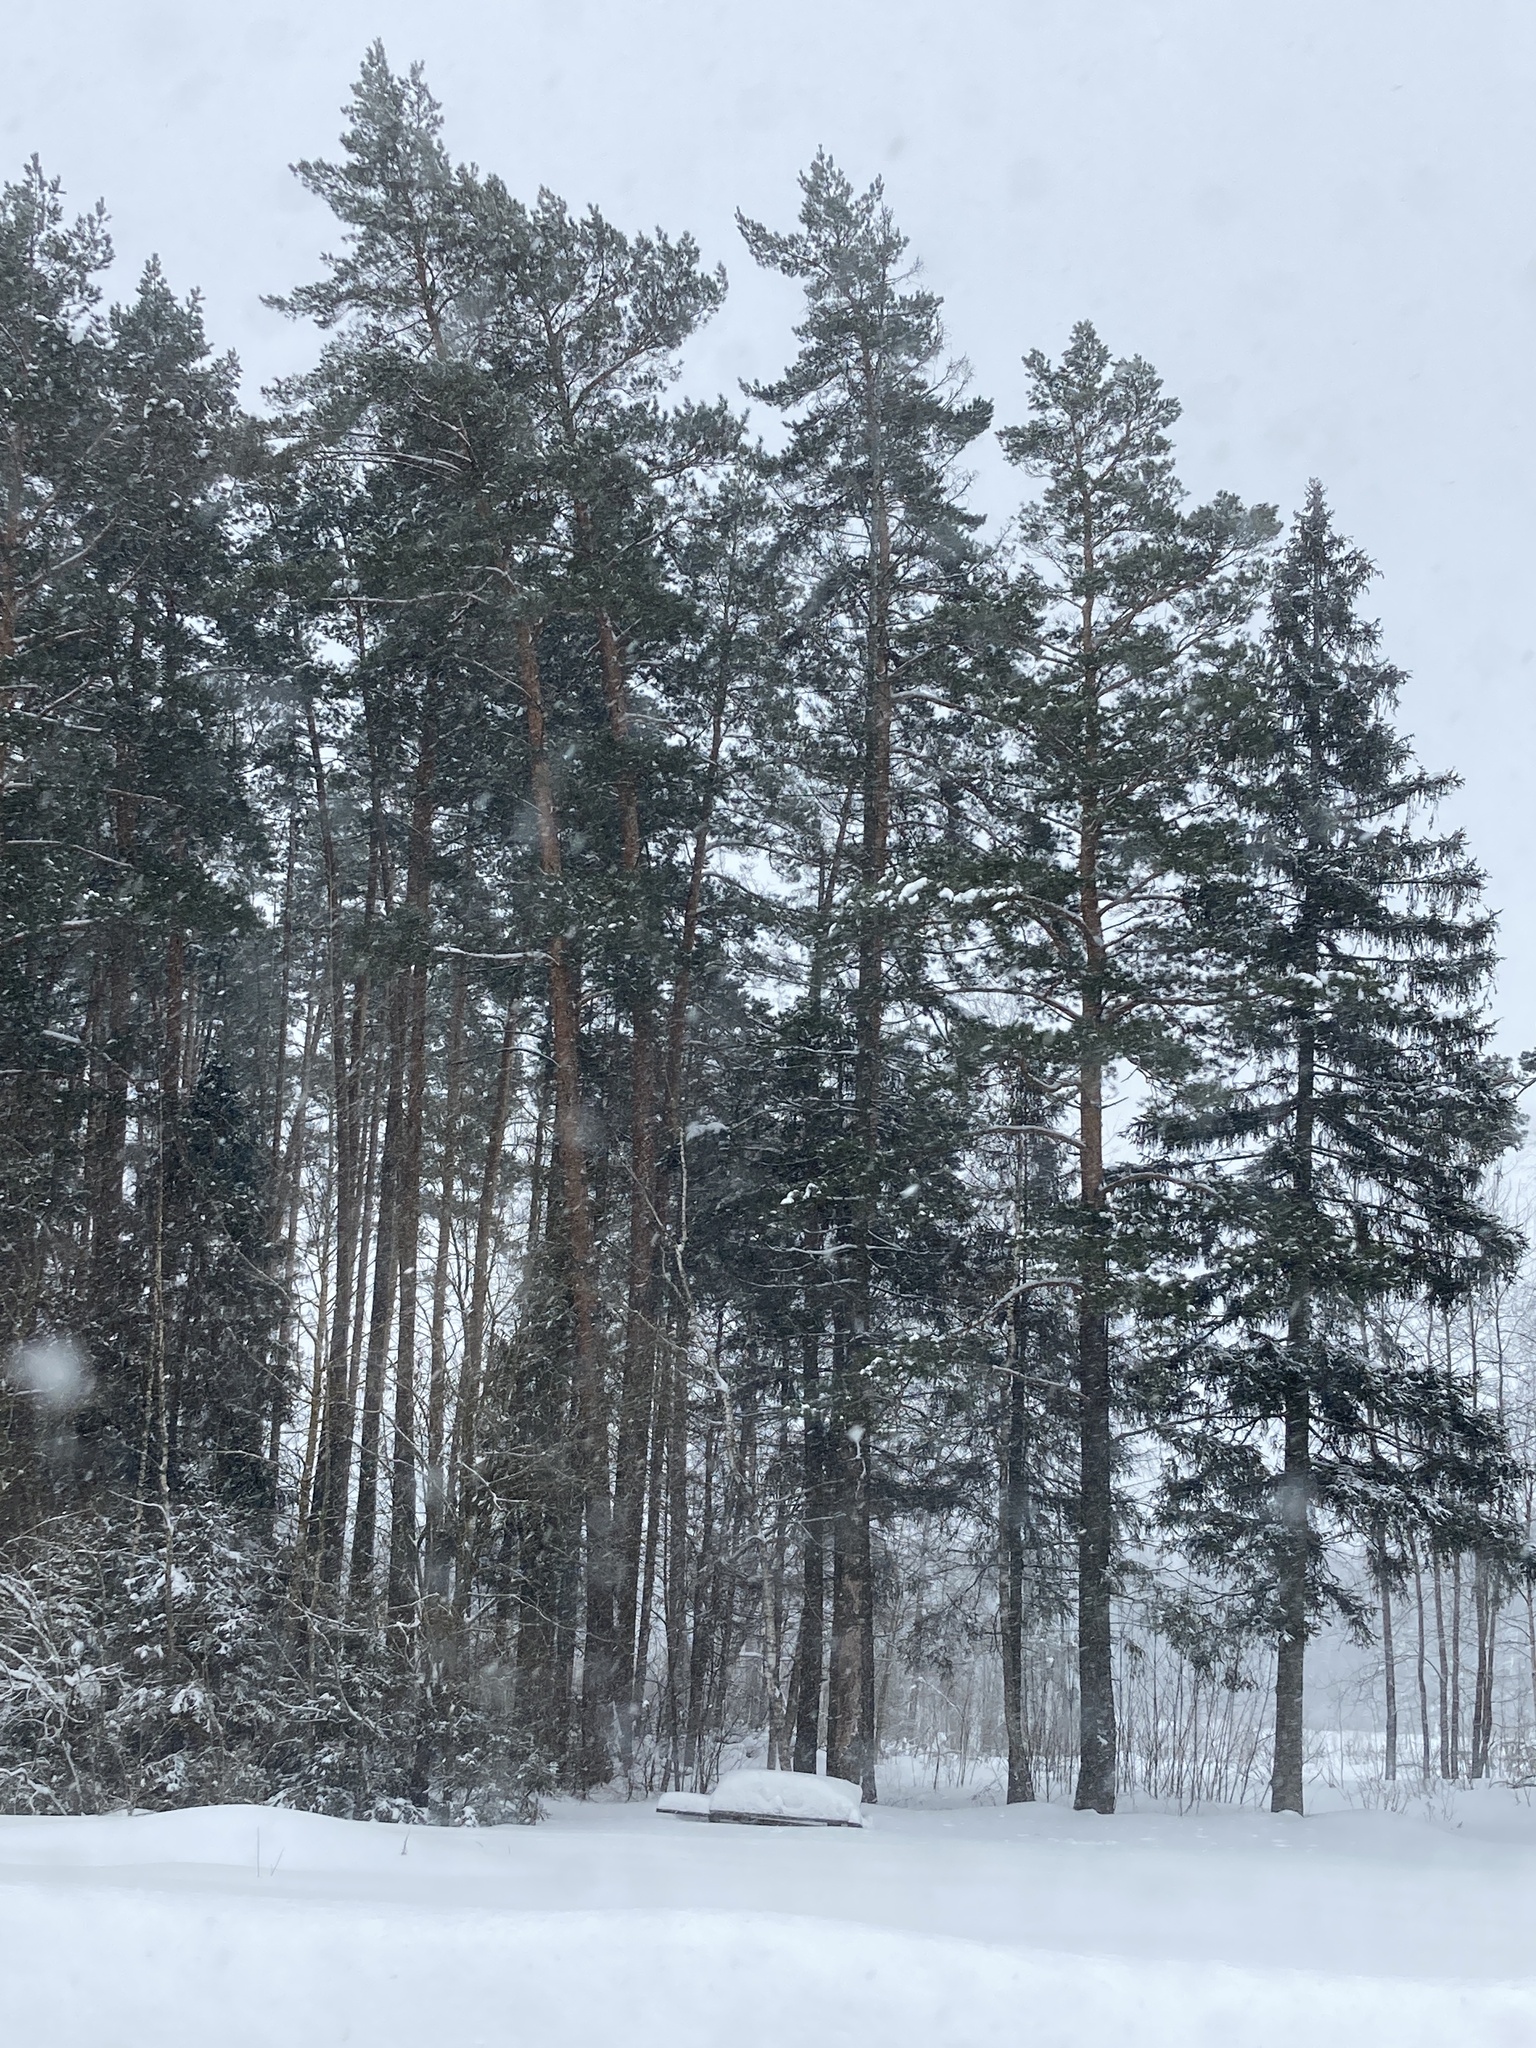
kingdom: Plantae
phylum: Tracheophyta
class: Pinopsida
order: Pinales
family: Pinaceae
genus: Pinus
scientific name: Pinus sylvestris
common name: Scots pine
